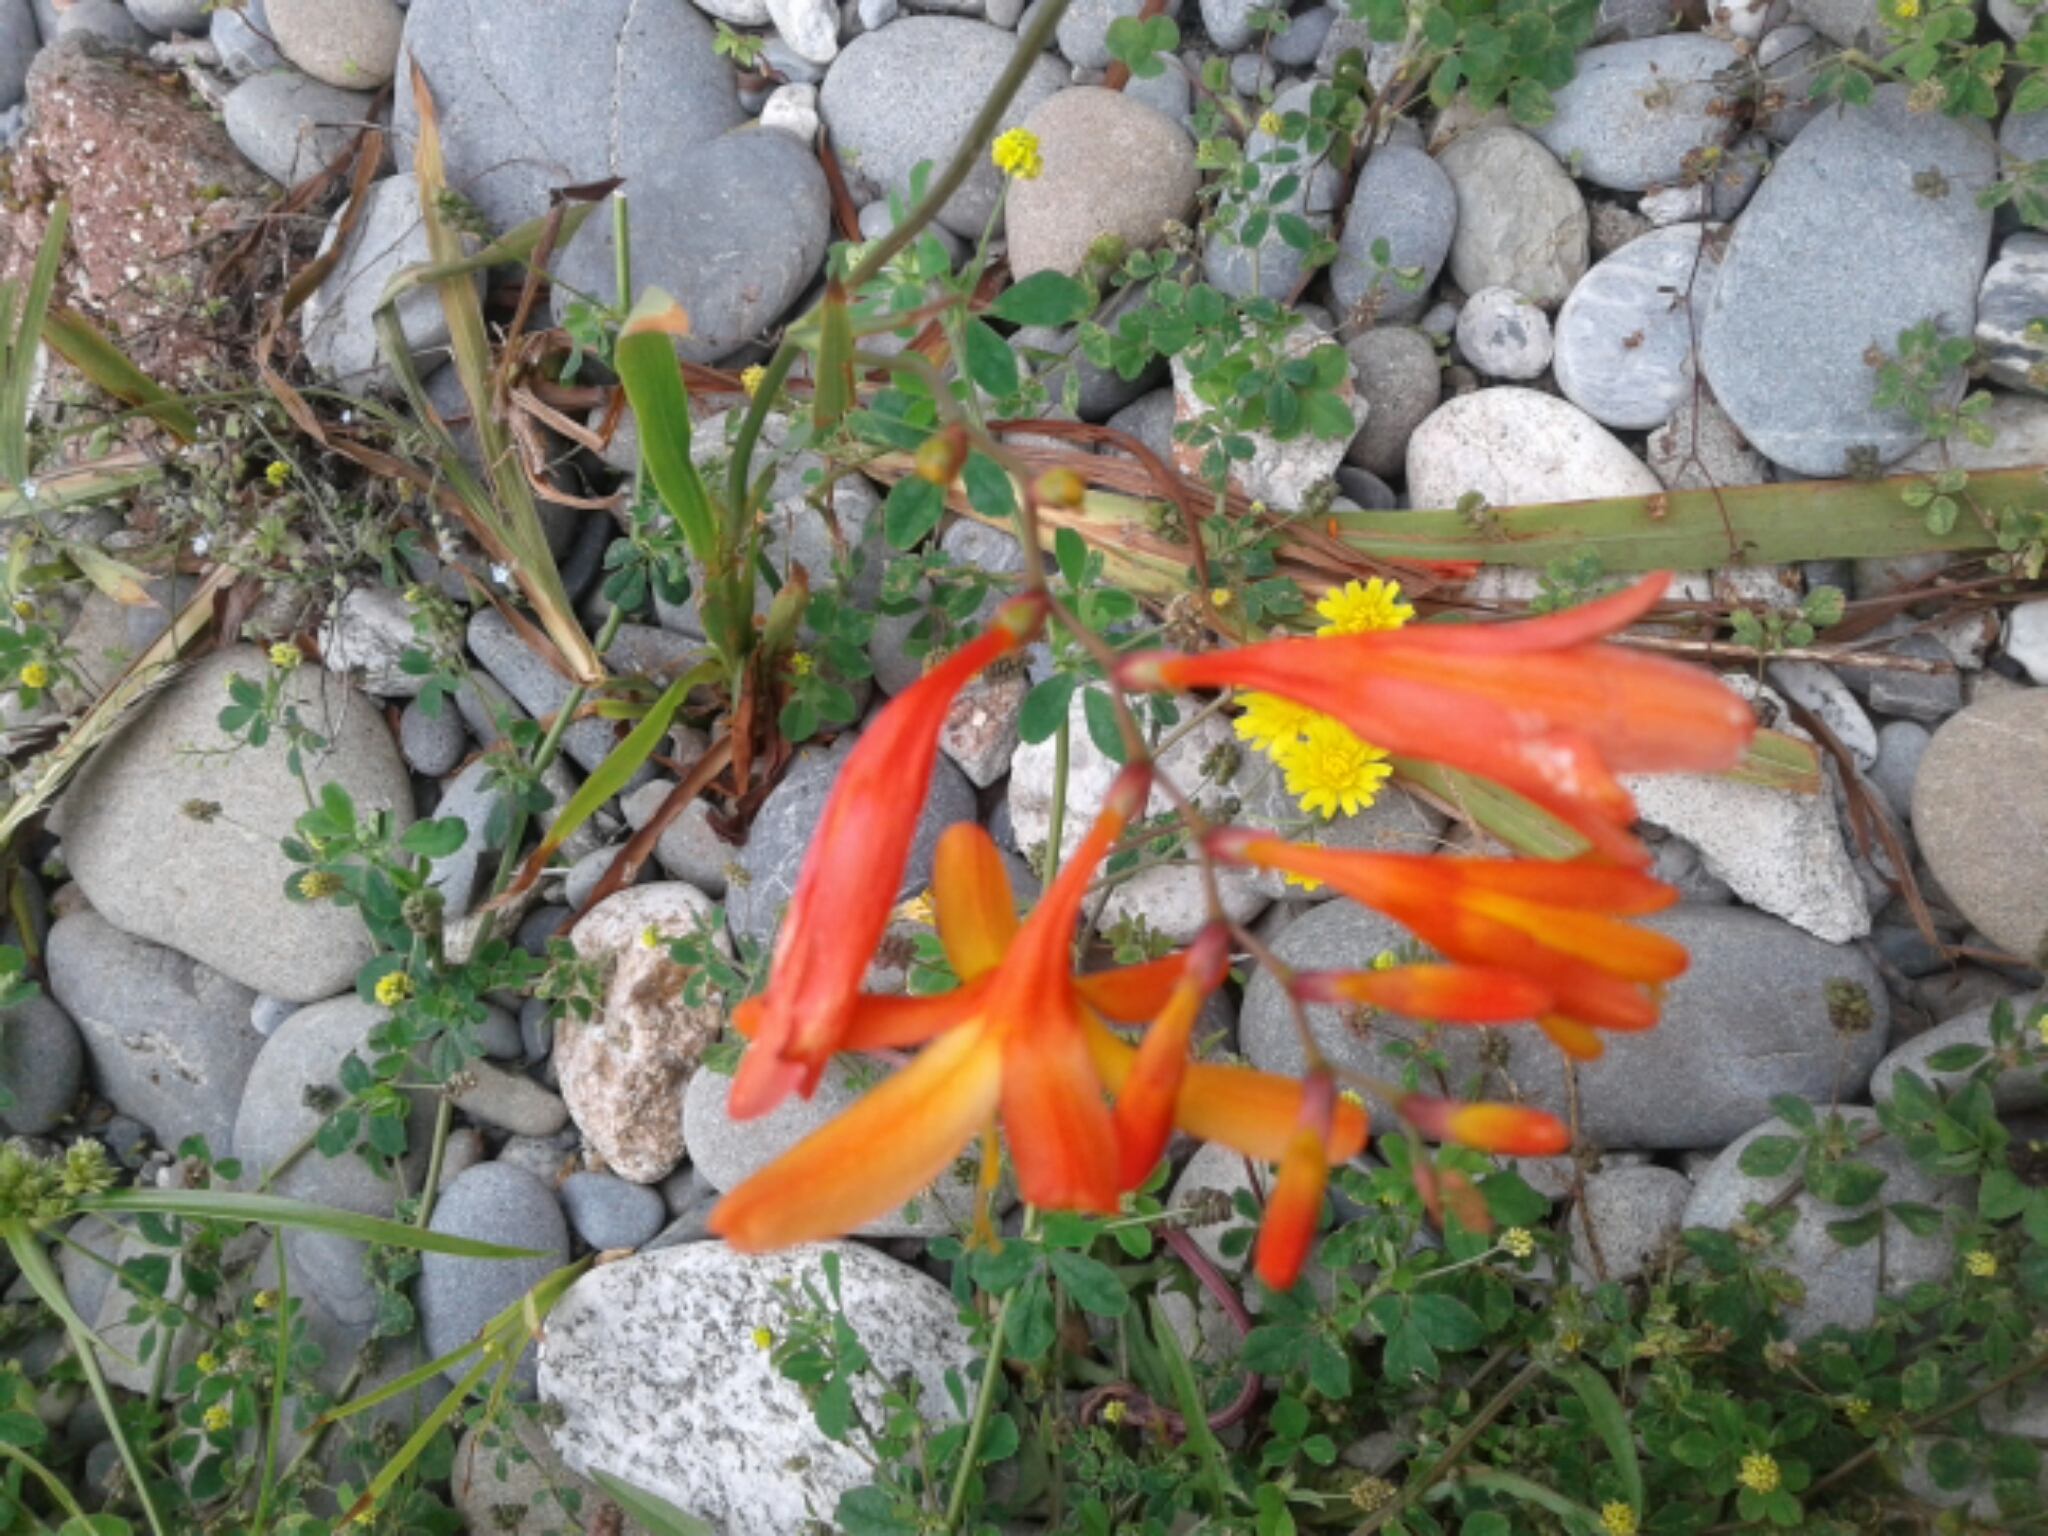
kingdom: Plantae
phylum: Tracheophyta
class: Liliopsida
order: Asparagales
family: Iridaceae
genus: Crocosmia
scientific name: Crocosmia crocosmiiflora
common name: Montbretia
